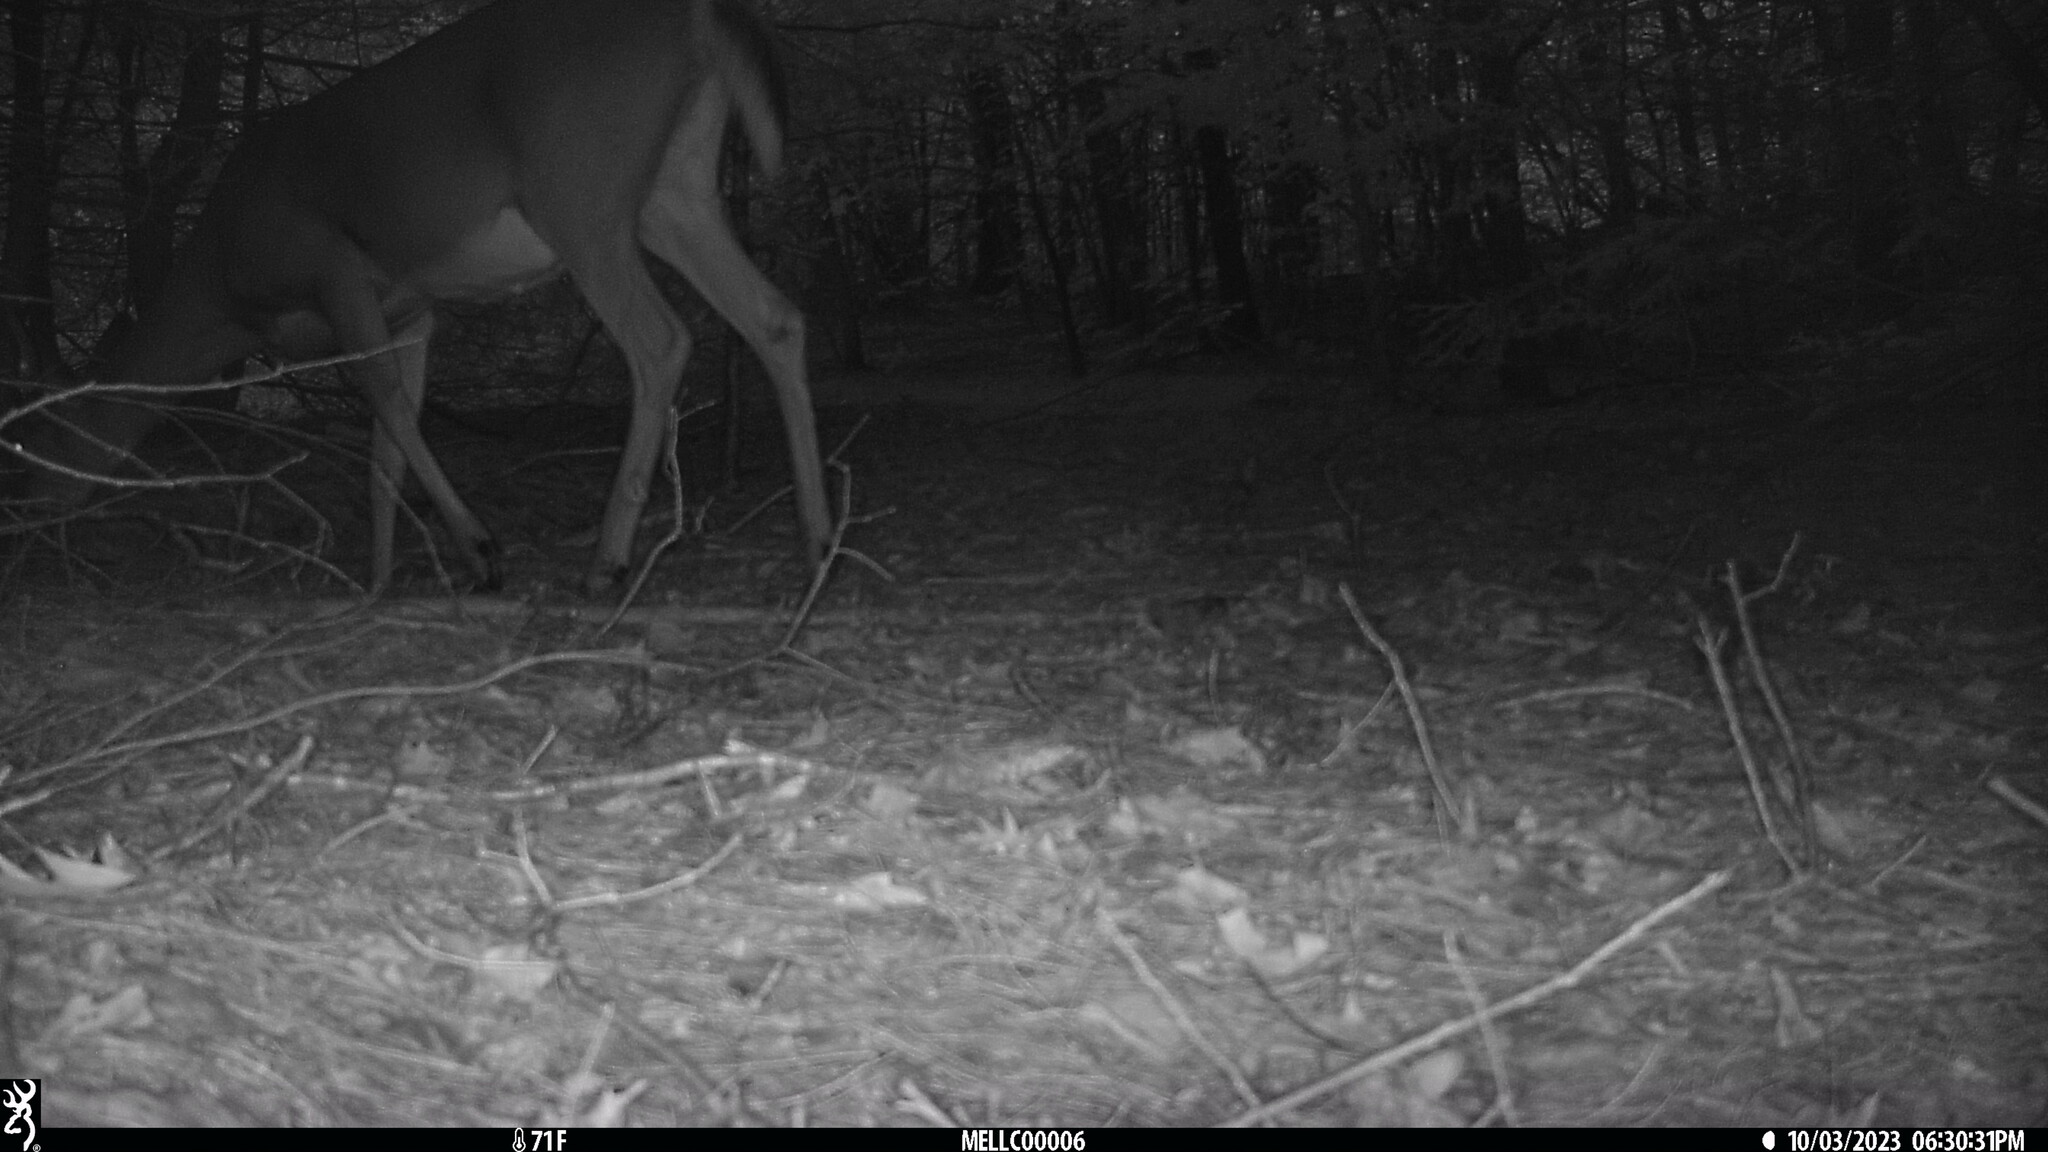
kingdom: Animalia
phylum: Chordata
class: Mammalia
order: Artiodactyla
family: Cervidae
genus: Odocoileus
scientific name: Odocoileus virginianus
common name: White-tailed deer
